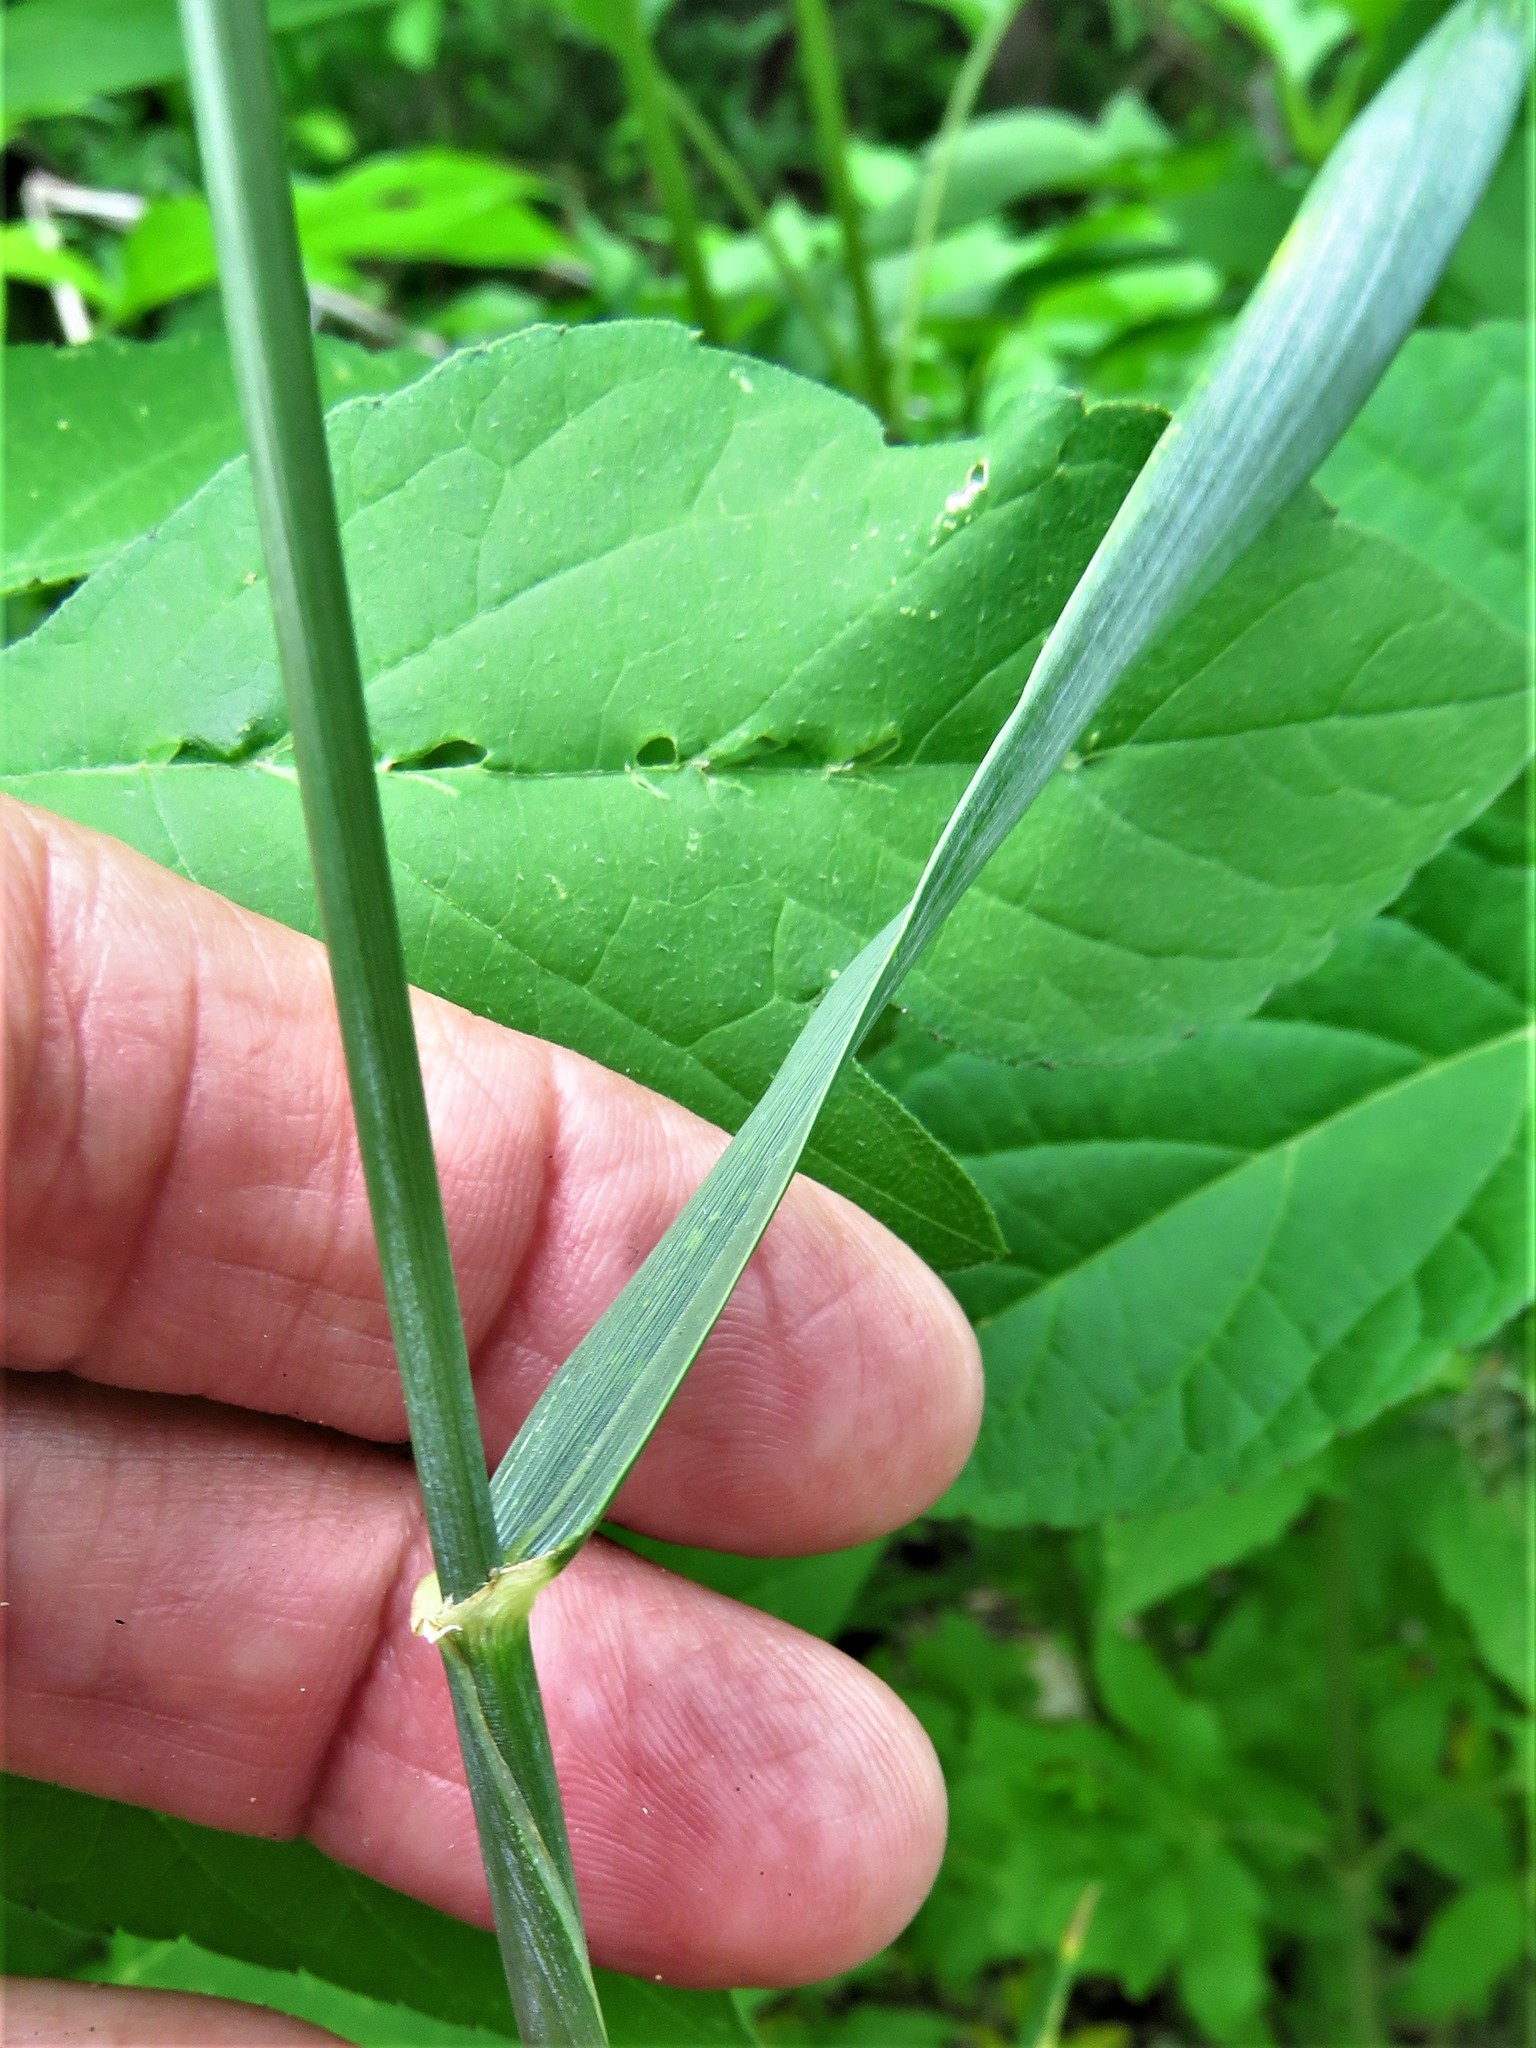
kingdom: Plantae
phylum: Tracheophyta
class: Liliopsida
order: Poales
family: Poaceae
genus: Triticum
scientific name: Triticum aestivum
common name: Common wheat
